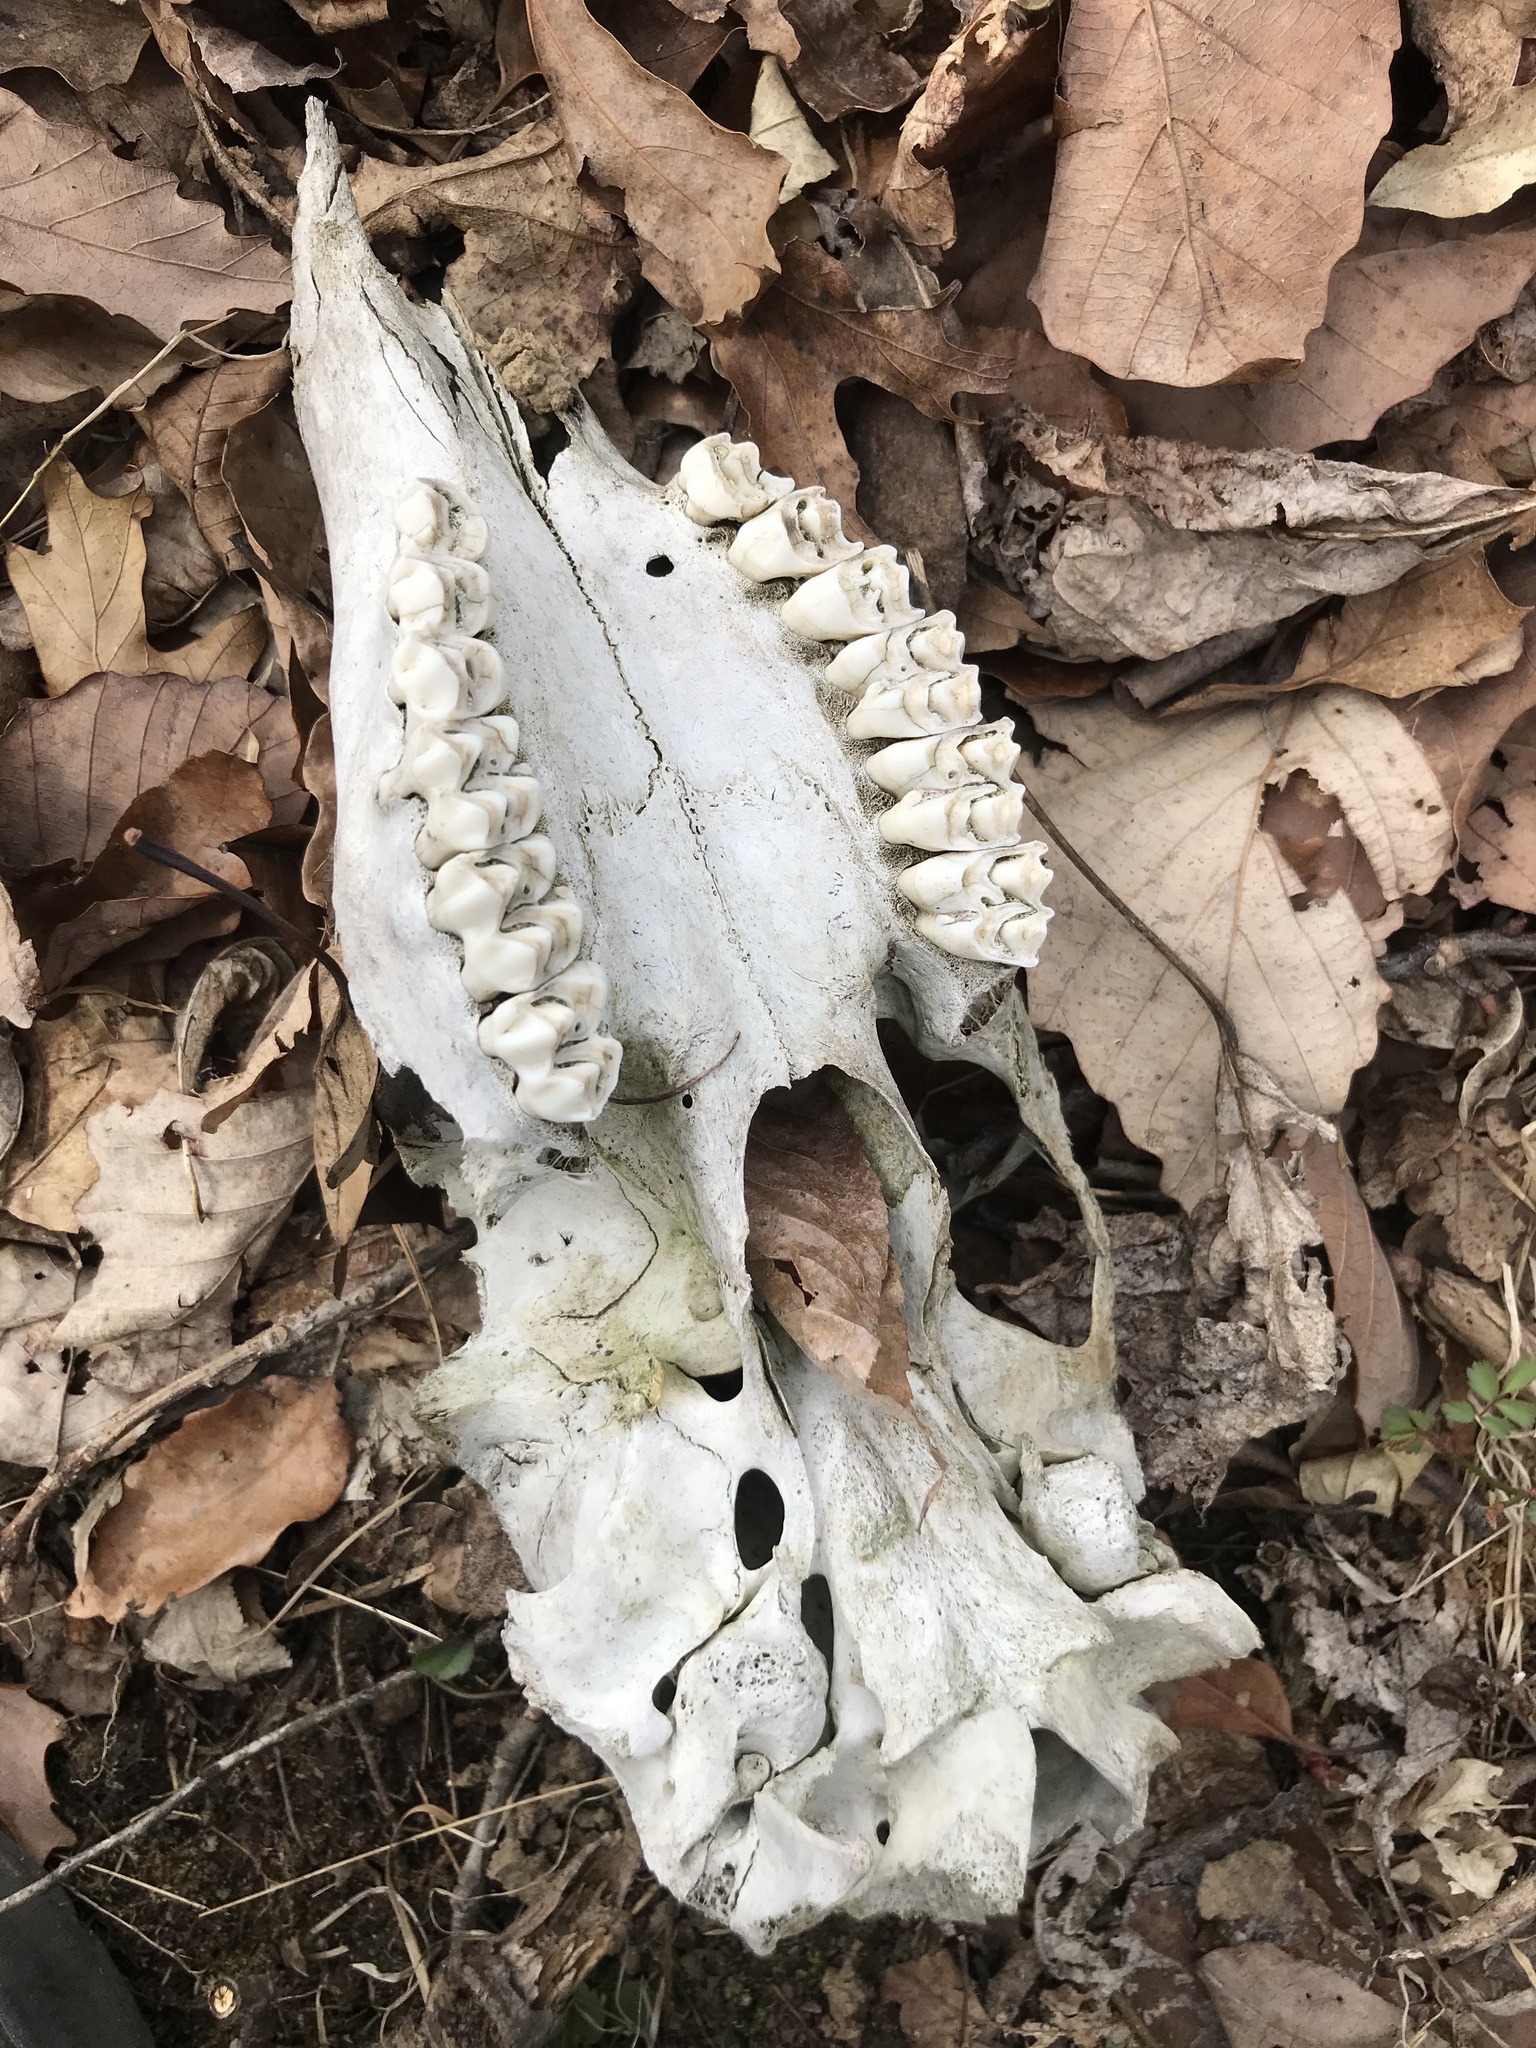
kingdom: Animalia
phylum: Chordata
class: Mammalia
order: Artiodactyla
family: Cervidae
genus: Odocoileus
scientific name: Odocoileus virginianus
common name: White-tailed deer
